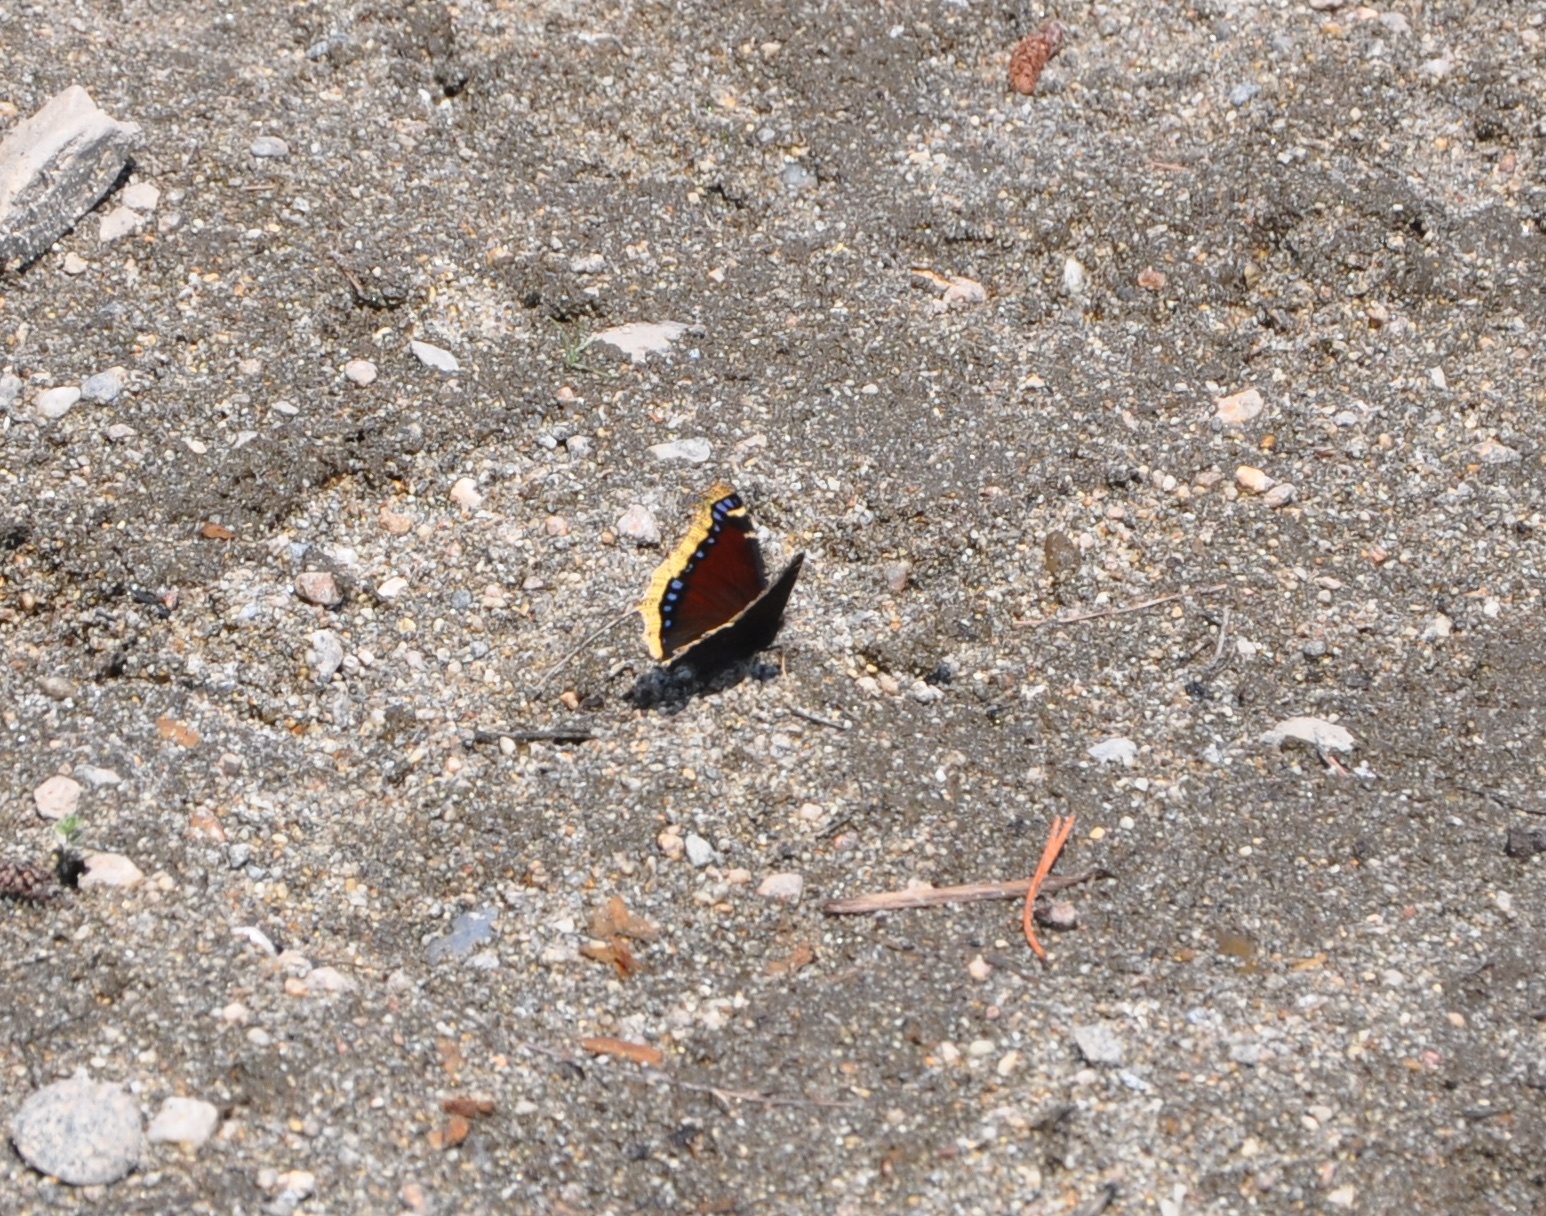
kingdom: Animalia
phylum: Arthropoda
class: Insecta
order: Lepidoptera
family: Nymphalidae
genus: Nymphalis
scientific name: Nymphalis antiopa
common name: Camberwell beauty
